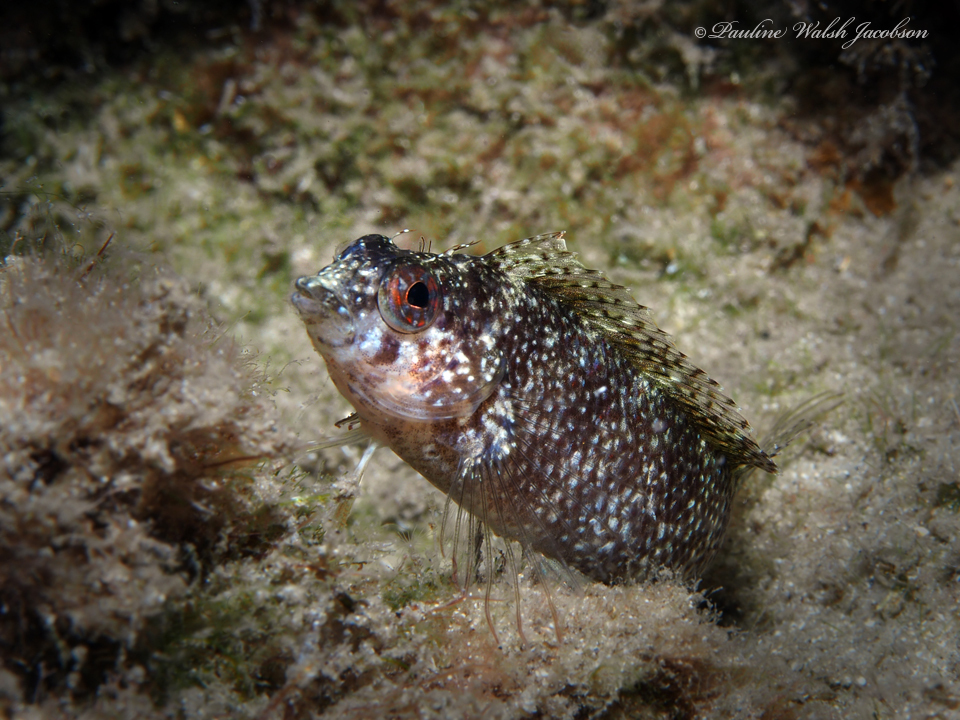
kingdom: Animalia
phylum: Chordata
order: Perciformes
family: Labrisomidae
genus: Malacoctenus
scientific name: Malacoctenus macropus
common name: Rosy blenny
